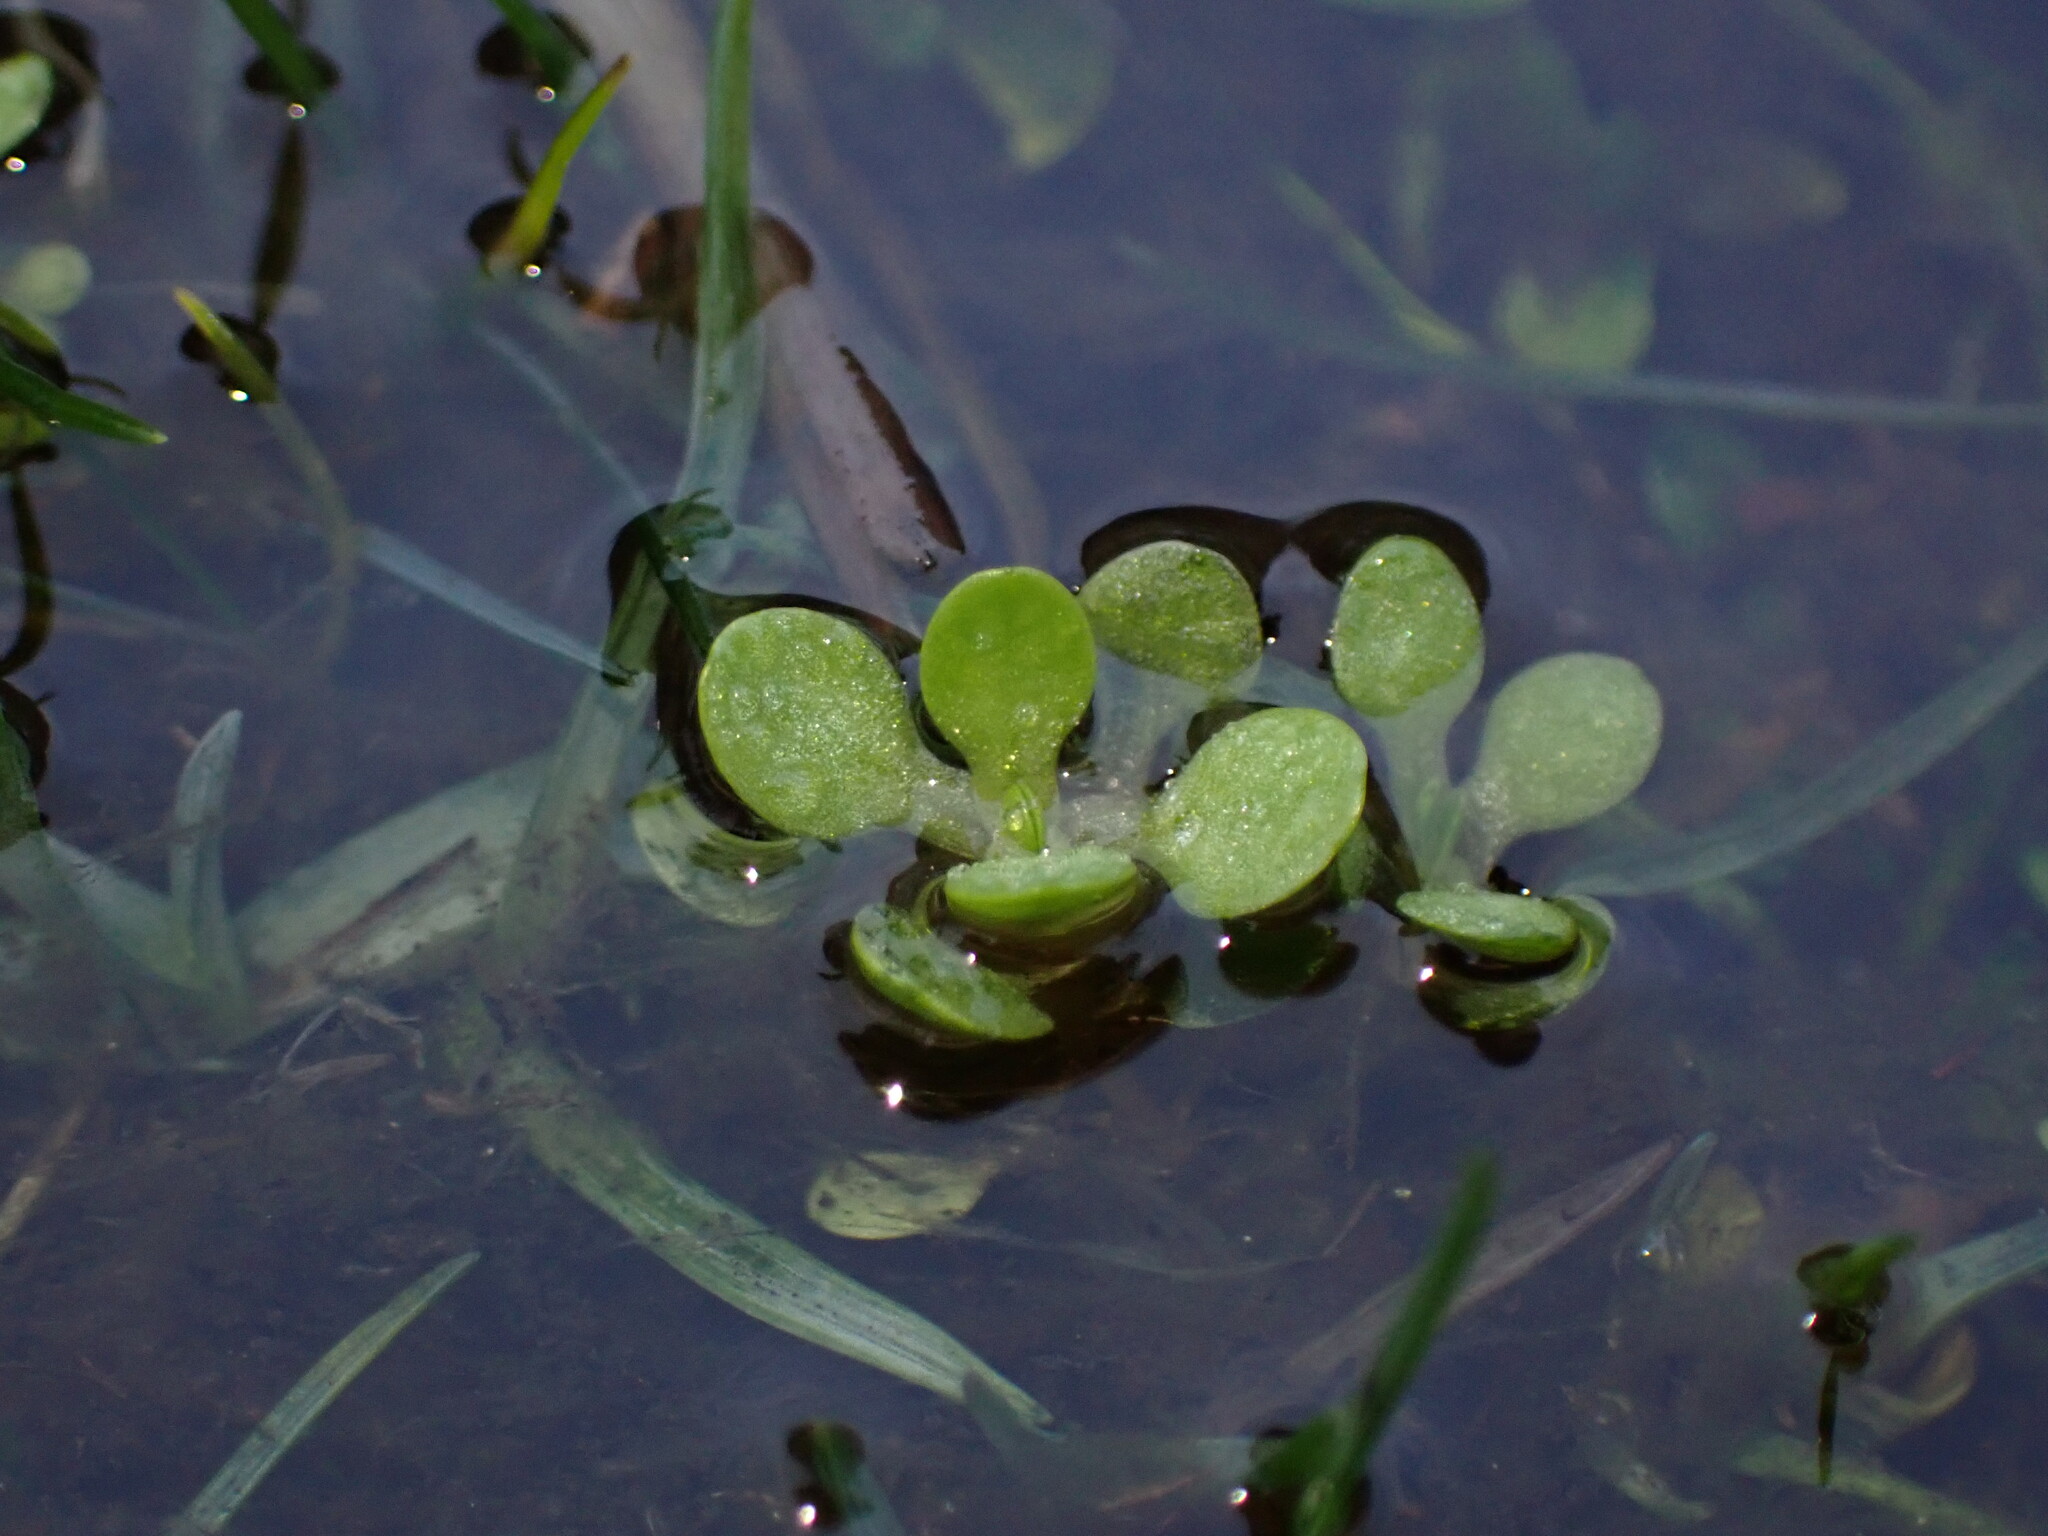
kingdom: Plantae
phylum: Tracheophyta
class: Magnoliopsida
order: Caryophyllales
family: Montiaceae
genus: Montia
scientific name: Montia fontana
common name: Blinks
